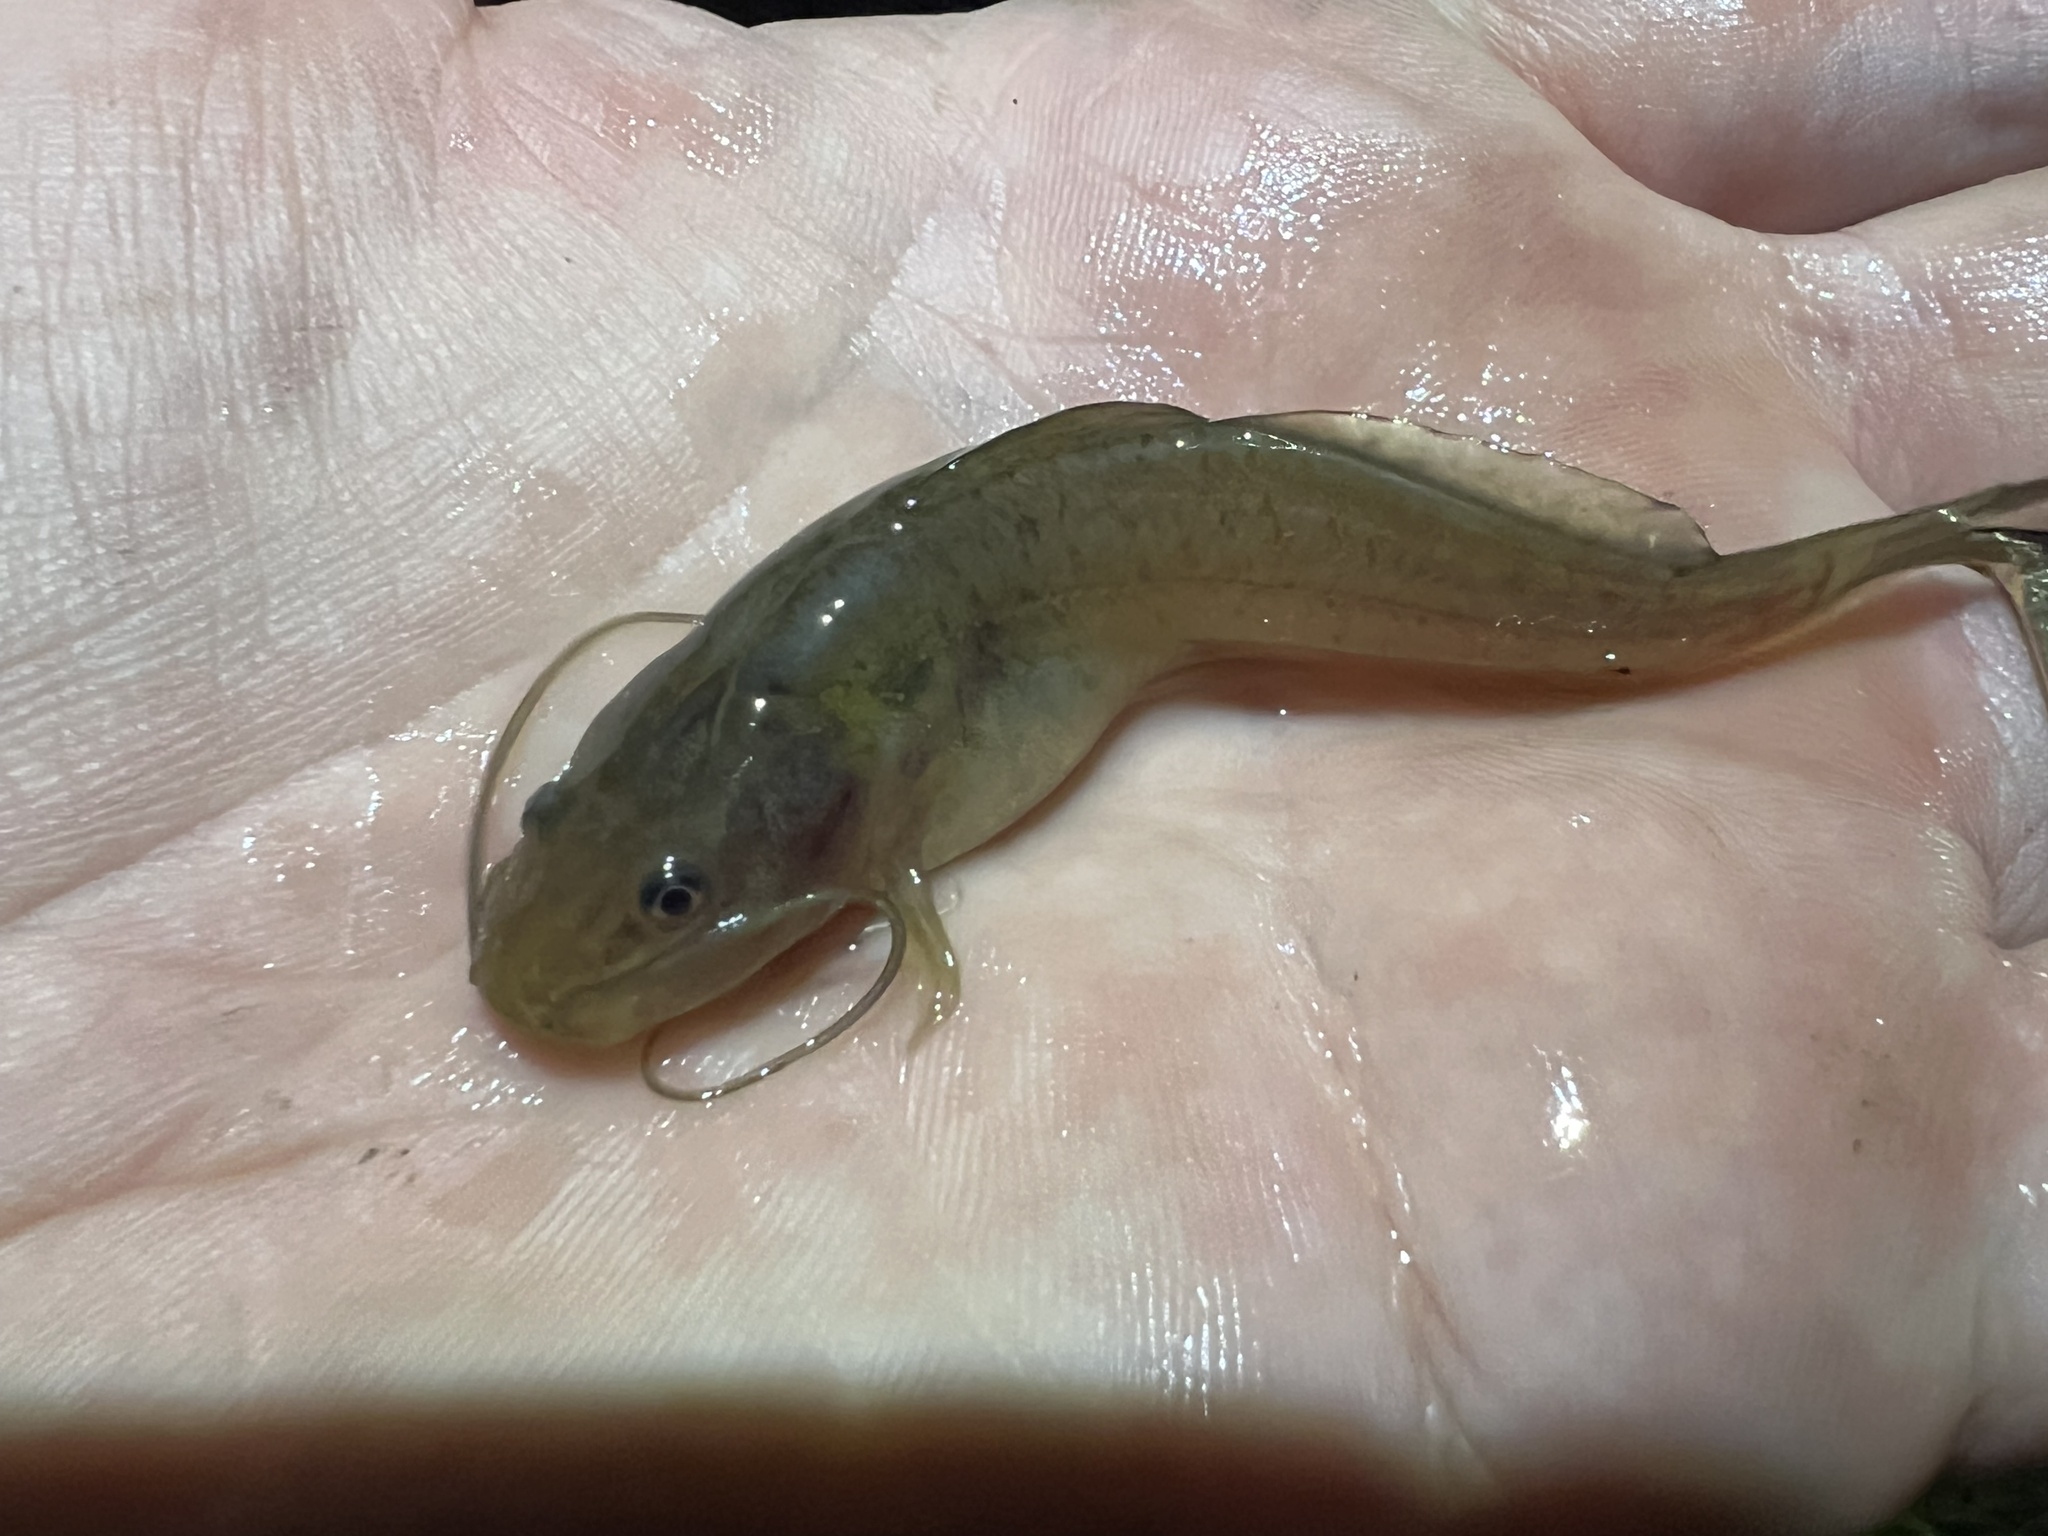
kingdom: Animalia
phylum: Chordata
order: Siluriformes
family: Heptapteridae
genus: Rhamdia
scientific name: Rhamdia quelen
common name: Catfish
